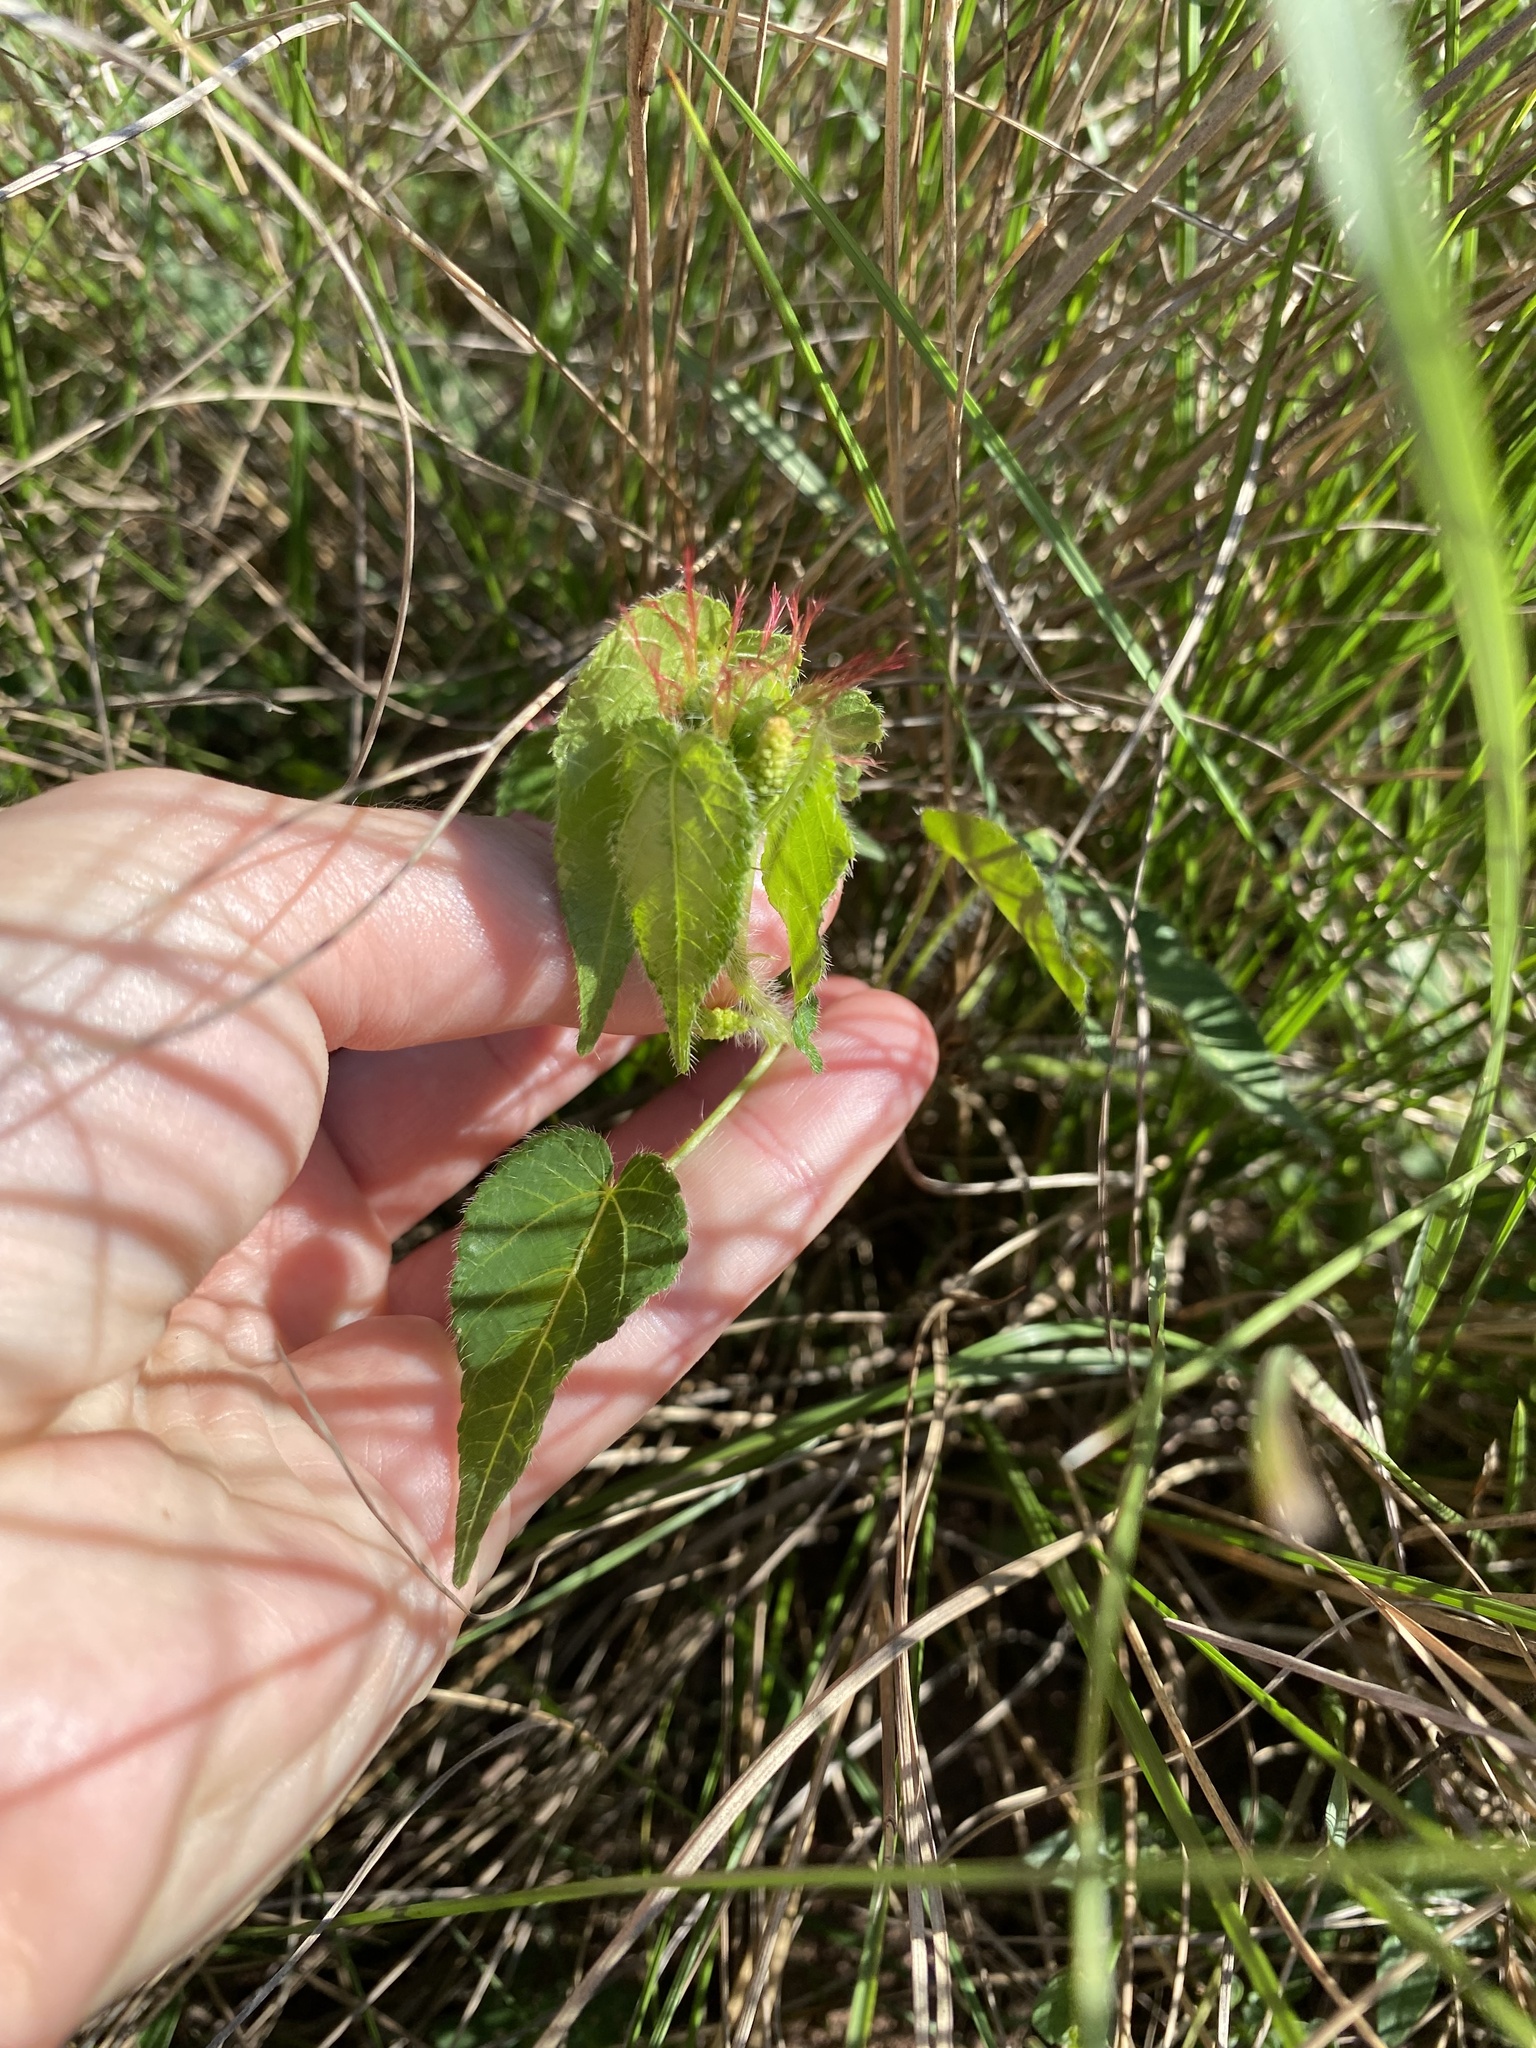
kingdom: Plantae
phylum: Tracheophyta
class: Magnoliopsida
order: Malpighiales
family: Euphorbiaceae
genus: Acalypha
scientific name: Acalypha petiolaris
